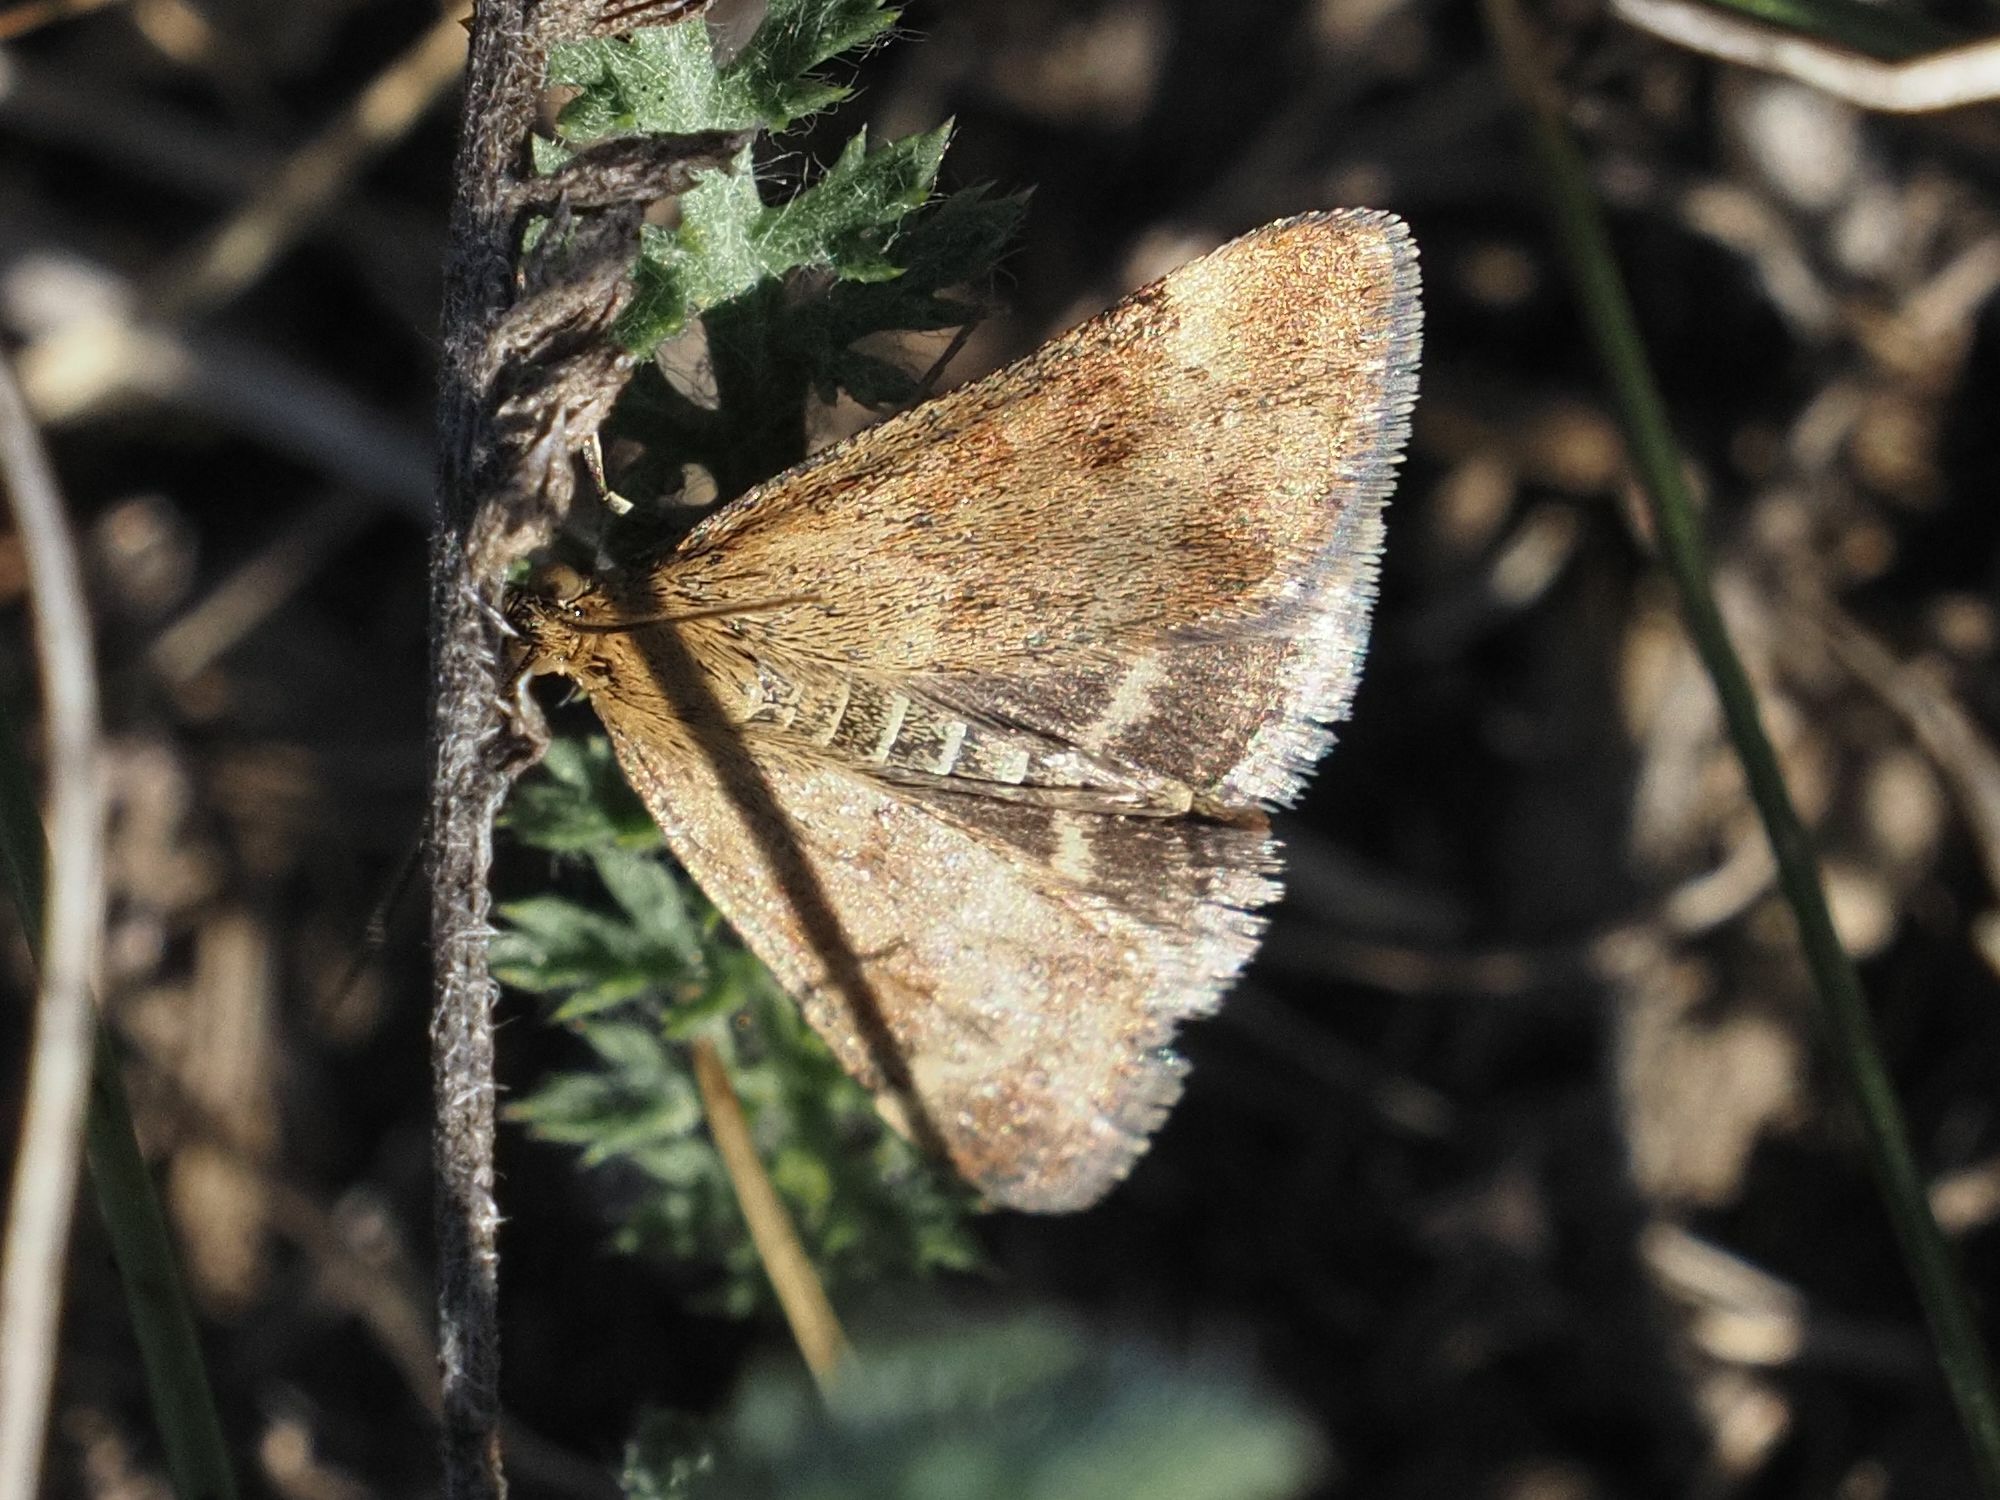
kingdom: Animalia
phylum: Arthropoda
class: Insecta
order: Lepidoptera
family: Crambidae
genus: Pyrausta
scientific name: Pyrausta despicata
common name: Straw-barred pearl
